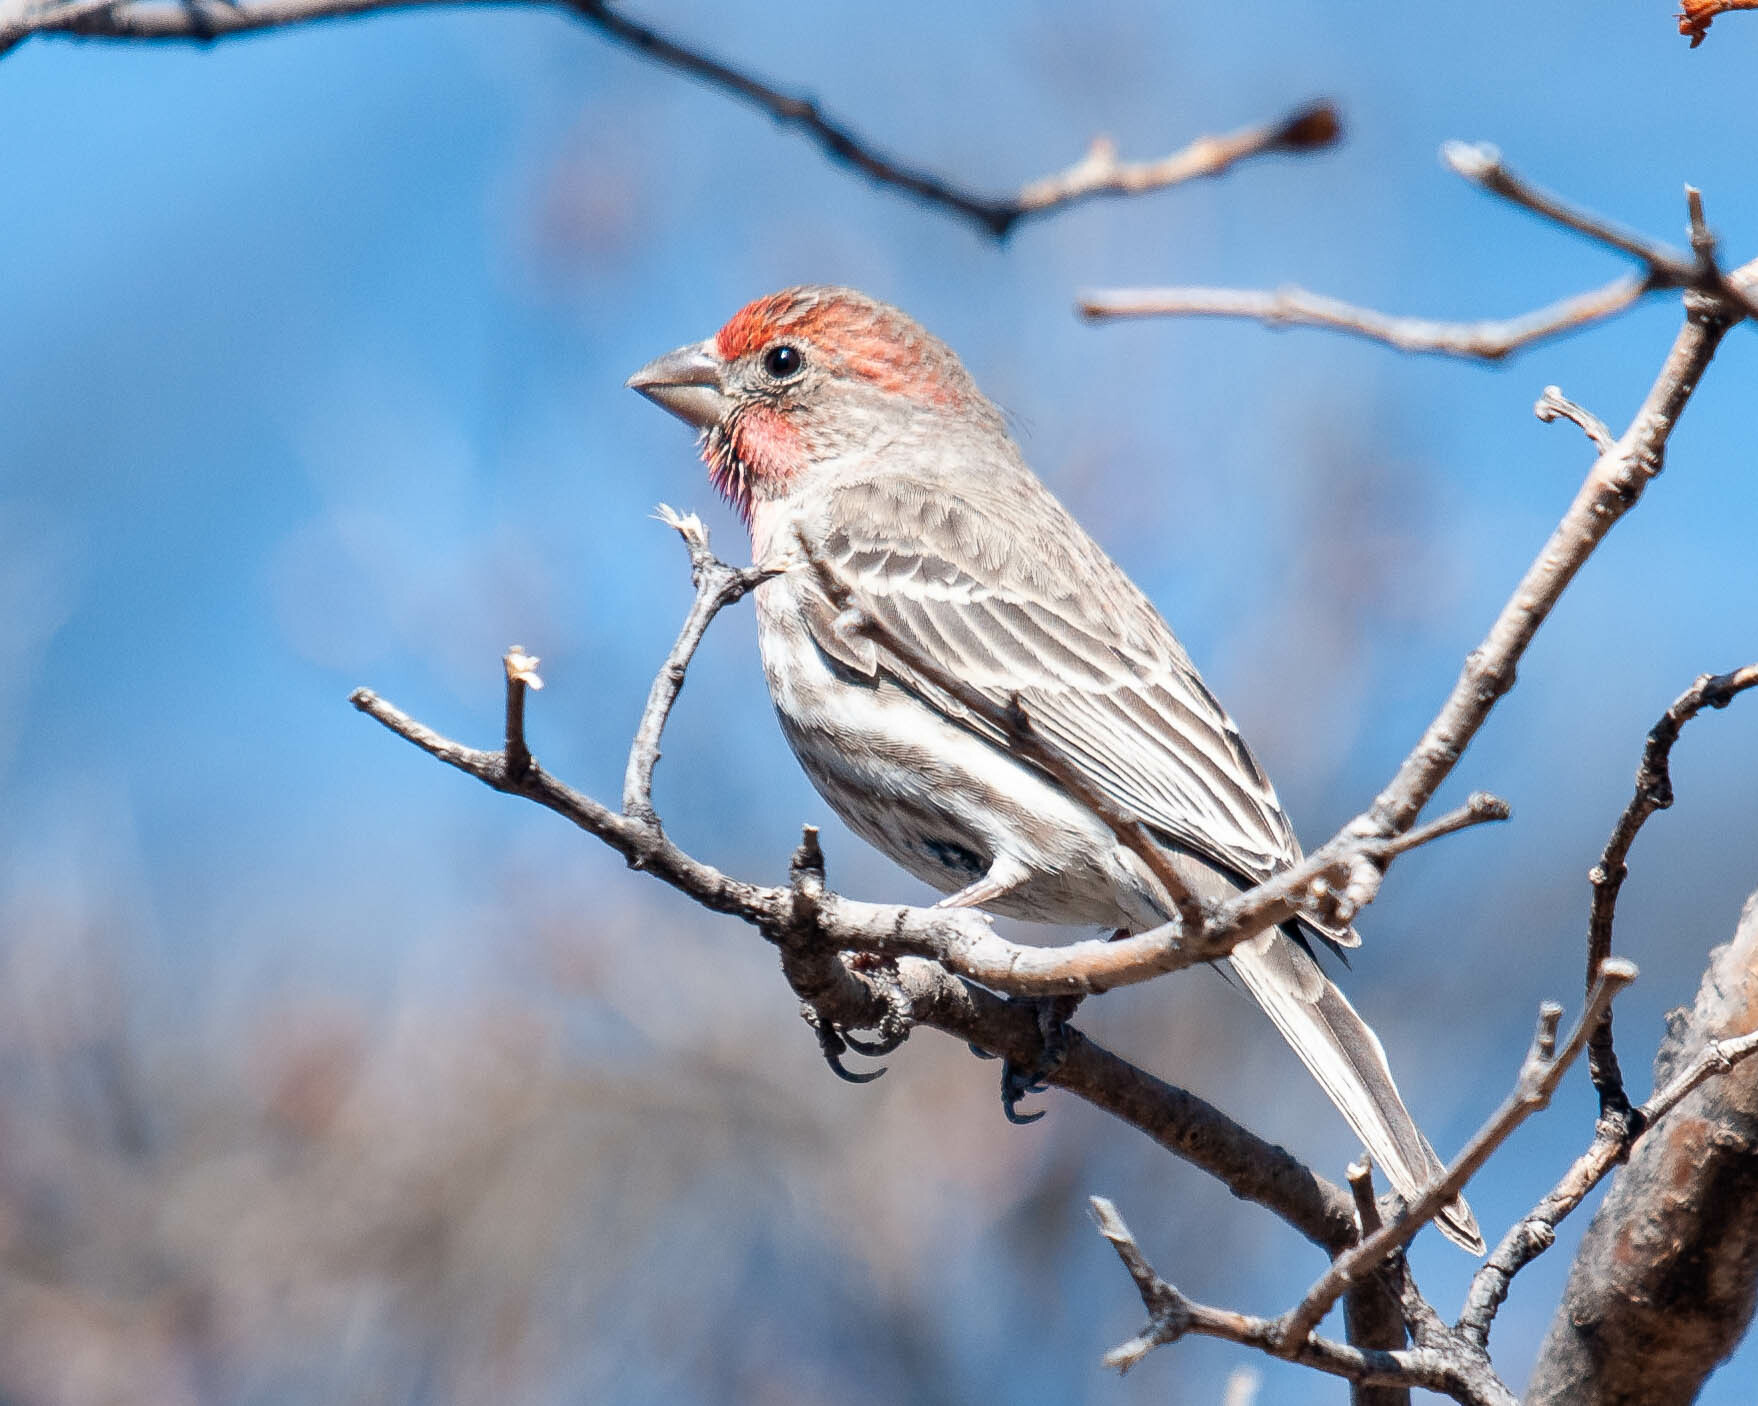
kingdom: Animalia
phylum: Chordata
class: Aves
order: Passeriformes
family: Fringillidae
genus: Haemorhous
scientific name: Haemorhous mexicanus
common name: House finch
